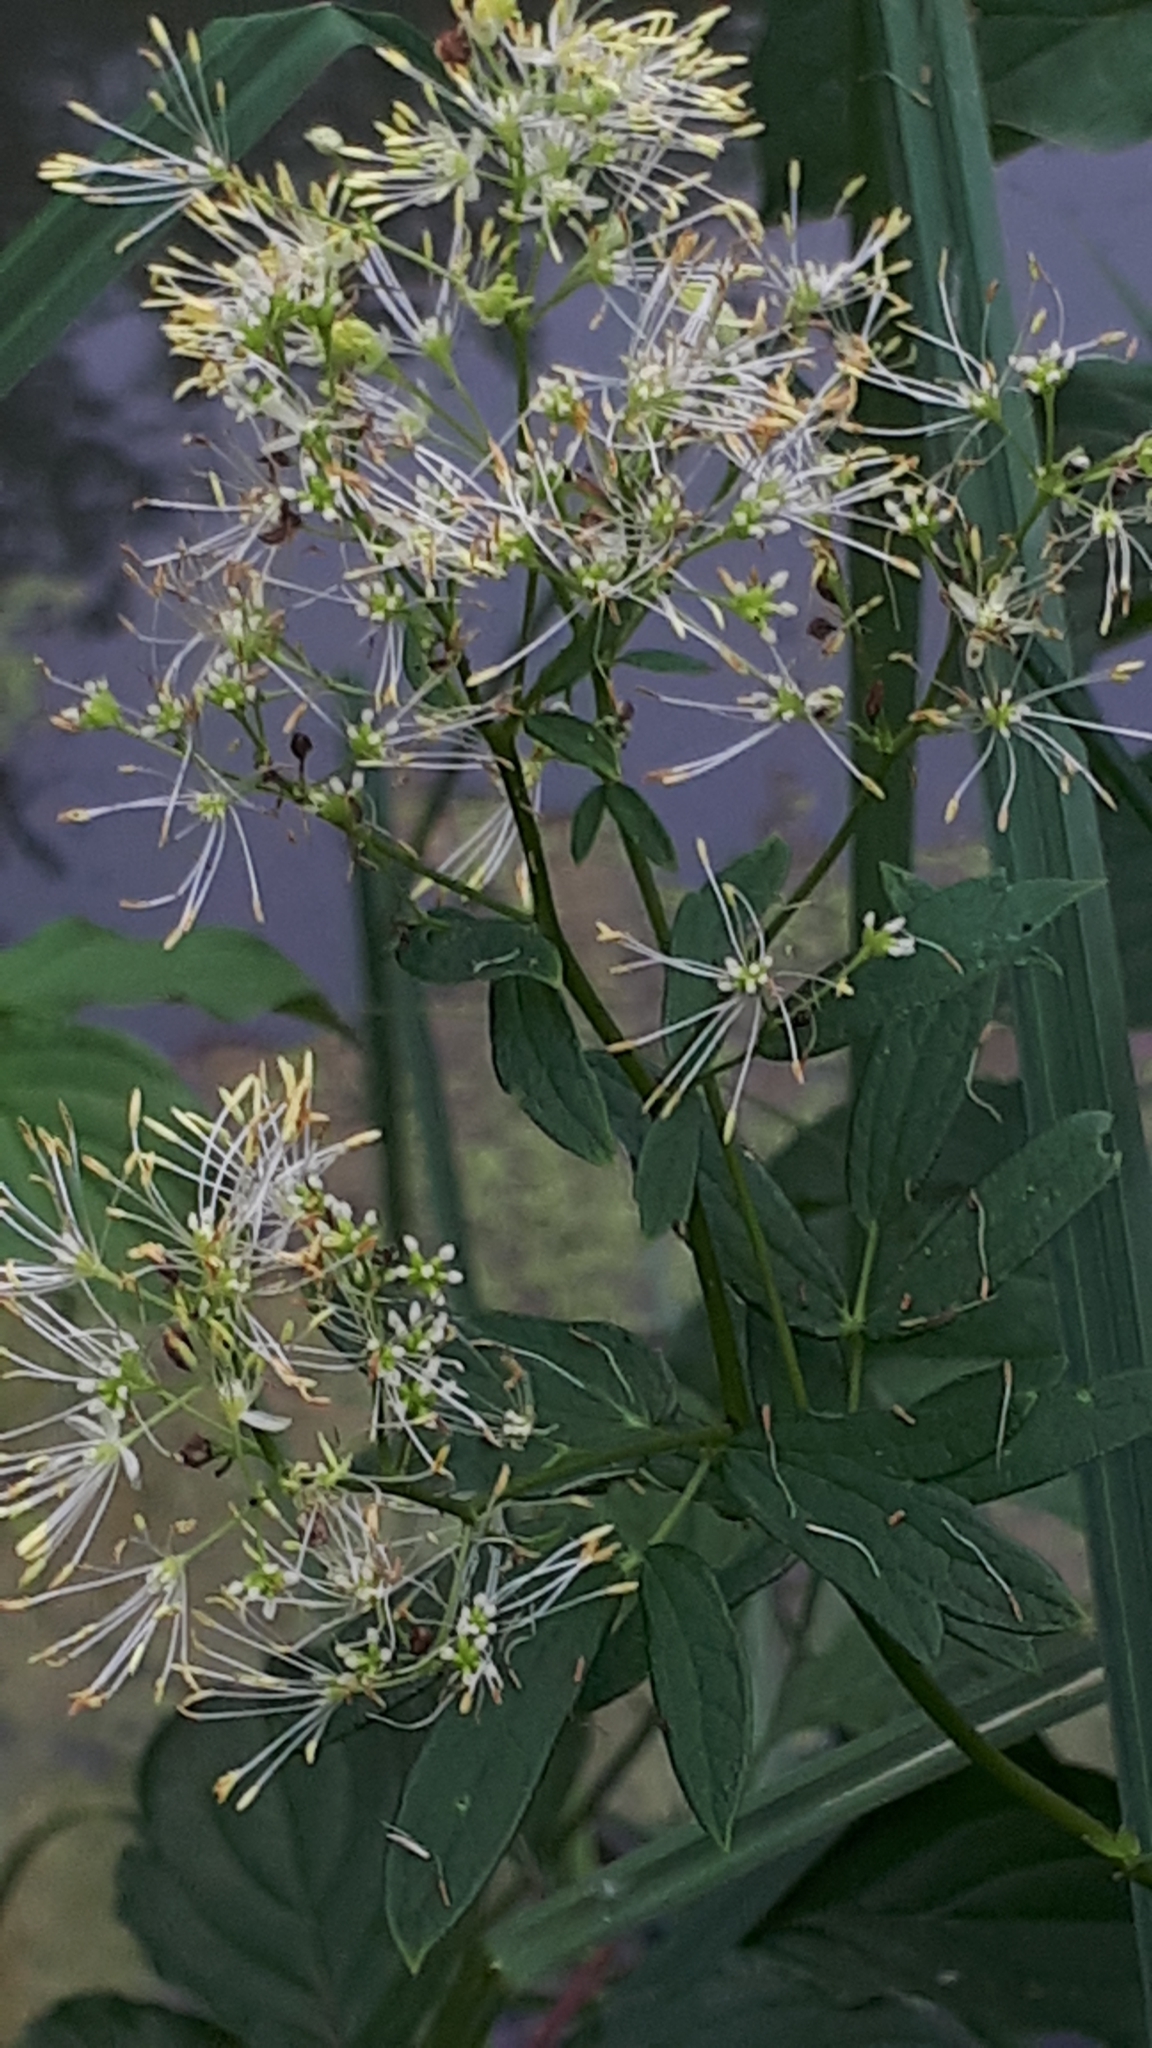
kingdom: Plantae
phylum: Tracheophyta
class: Magnoliopsida
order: Ranunculales
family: Ranunculaceae
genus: Thalictrum
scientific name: Thalictrum flavum
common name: Common meadow-rue
